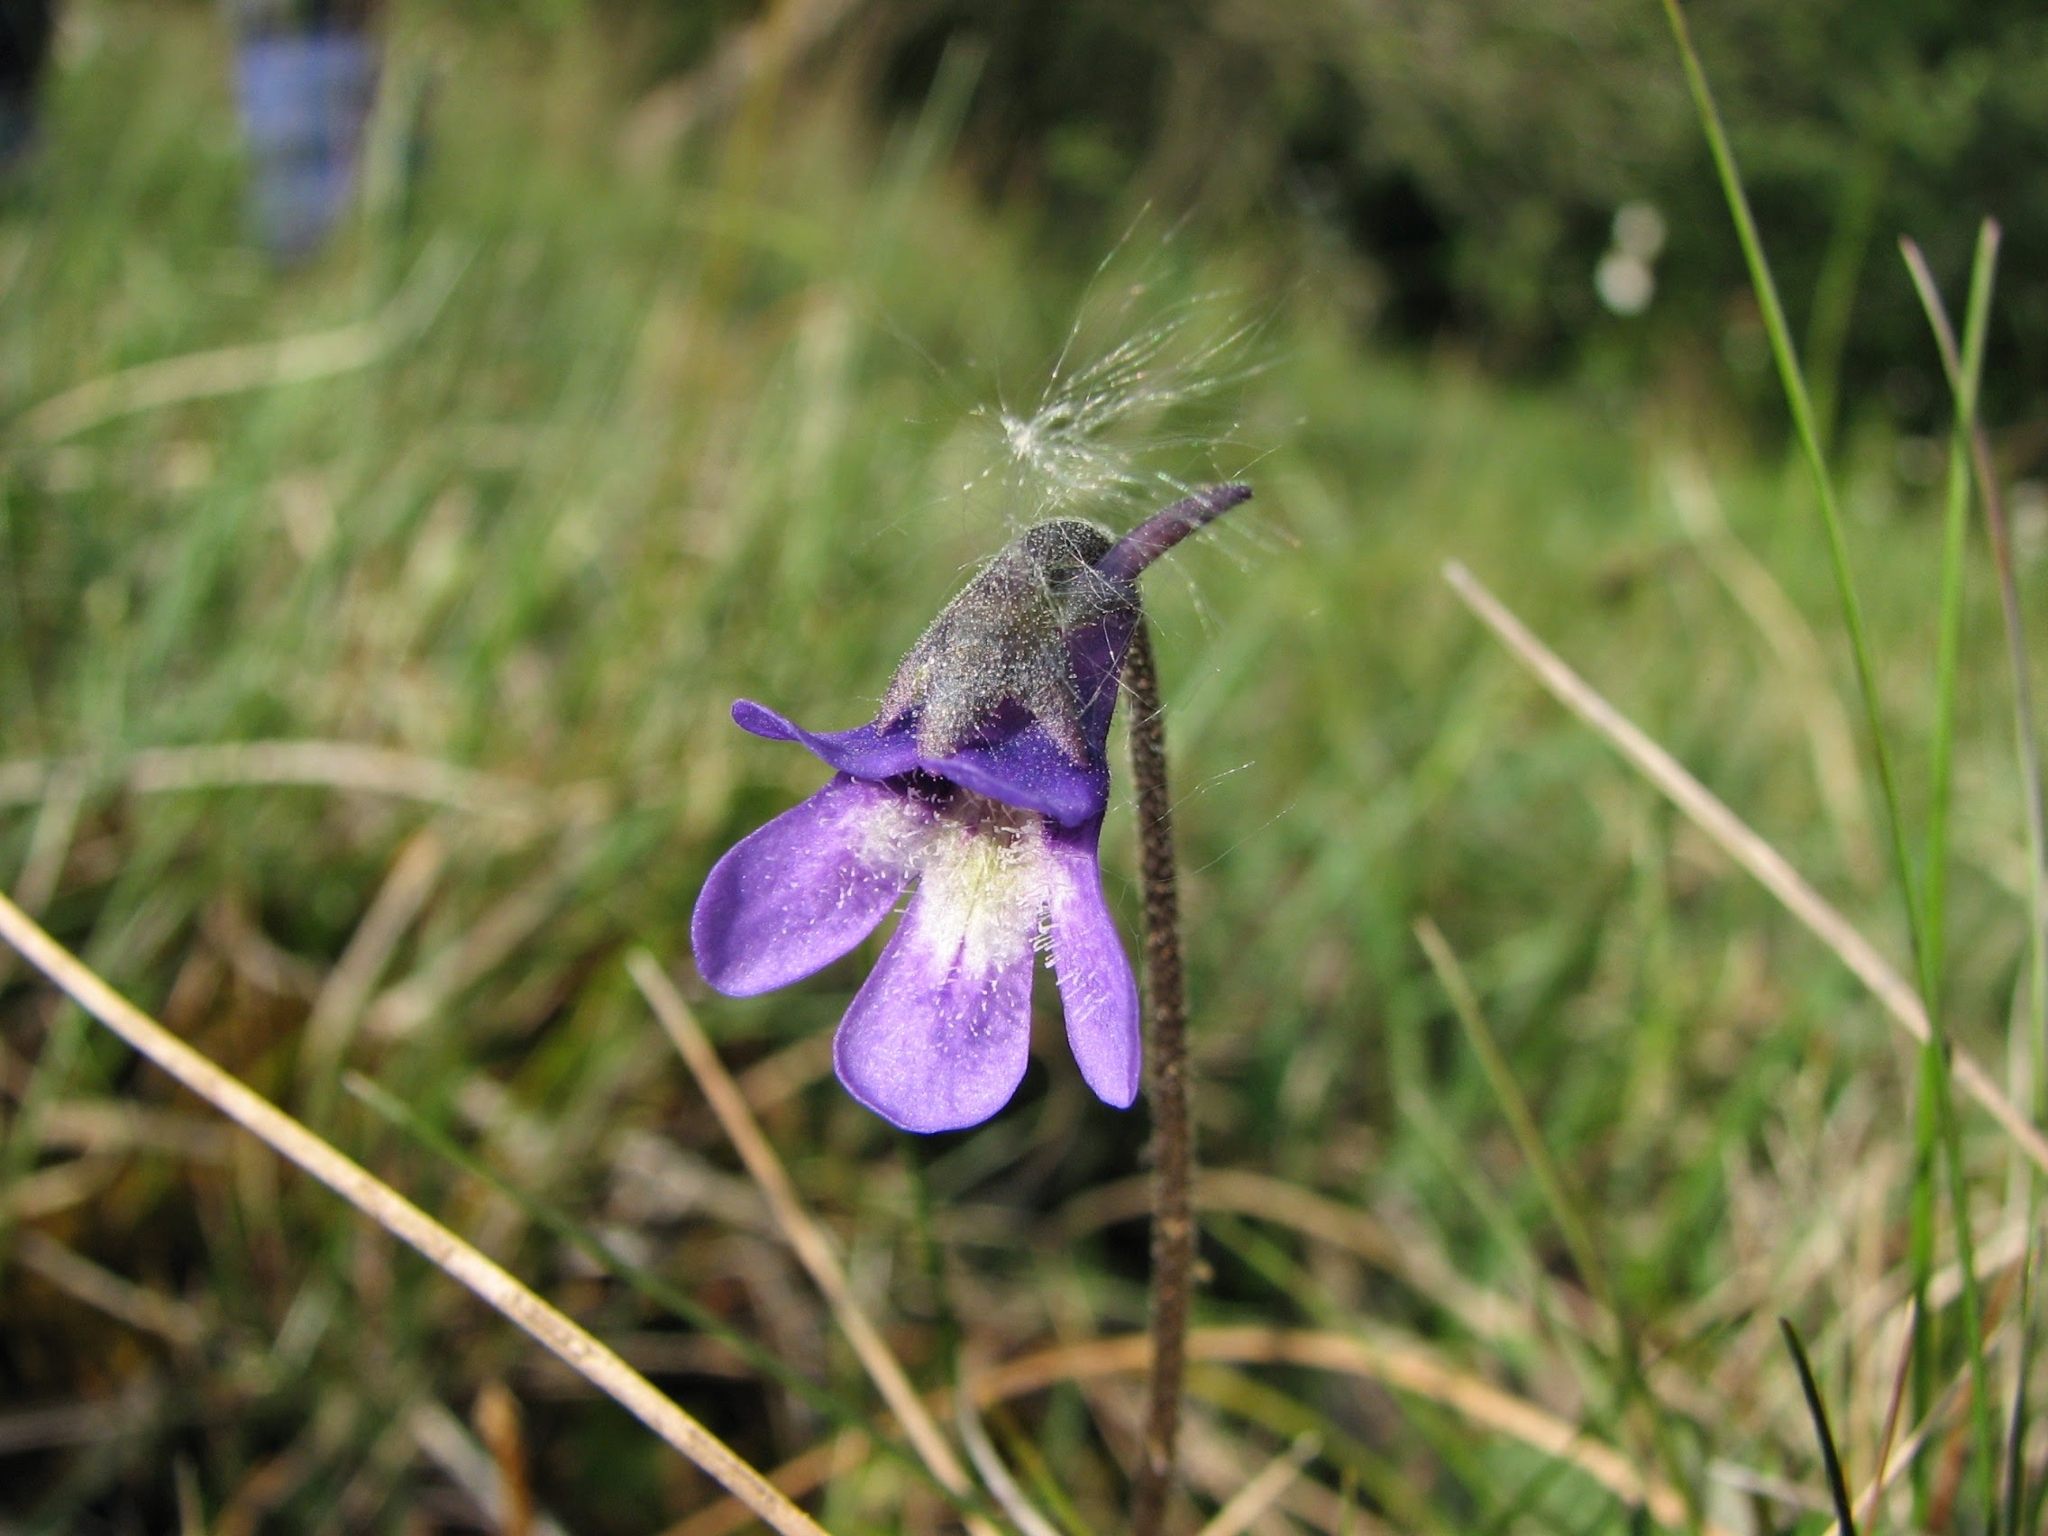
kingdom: Plantae
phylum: Tracheophyta
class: Magnoliopsida
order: Lamiales
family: Lentibulariaceae
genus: Pinguicula
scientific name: Pinguicula vulgaris
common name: Common butterwort
